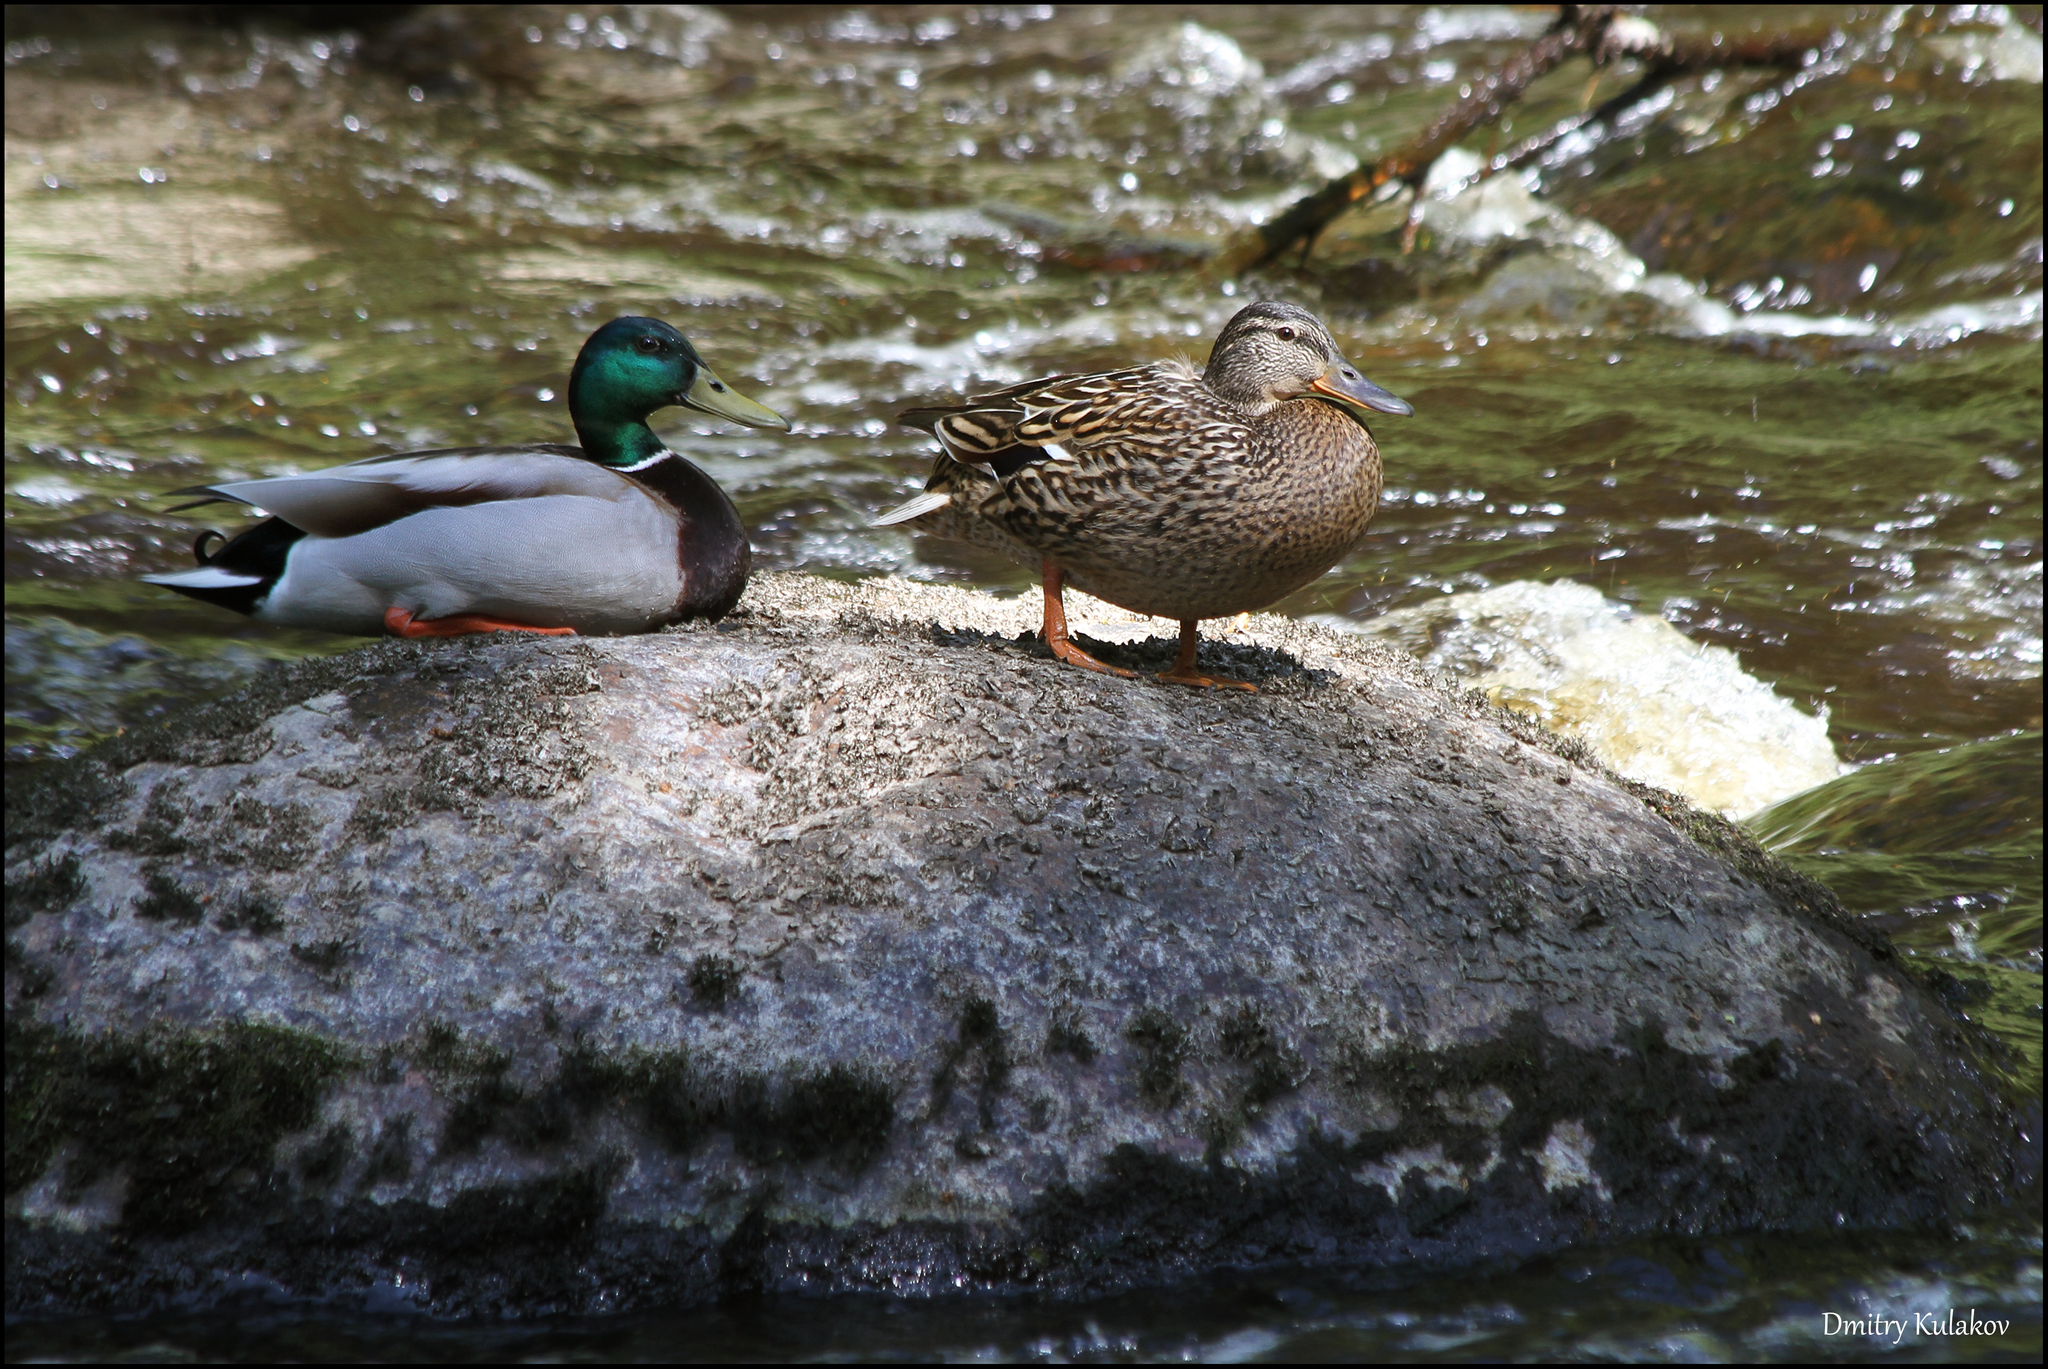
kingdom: Animalia
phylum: Chordata
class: Aves
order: Anseriformes
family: Anatidae
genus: Anas
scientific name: Anas platyrhynchos
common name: Mallard
